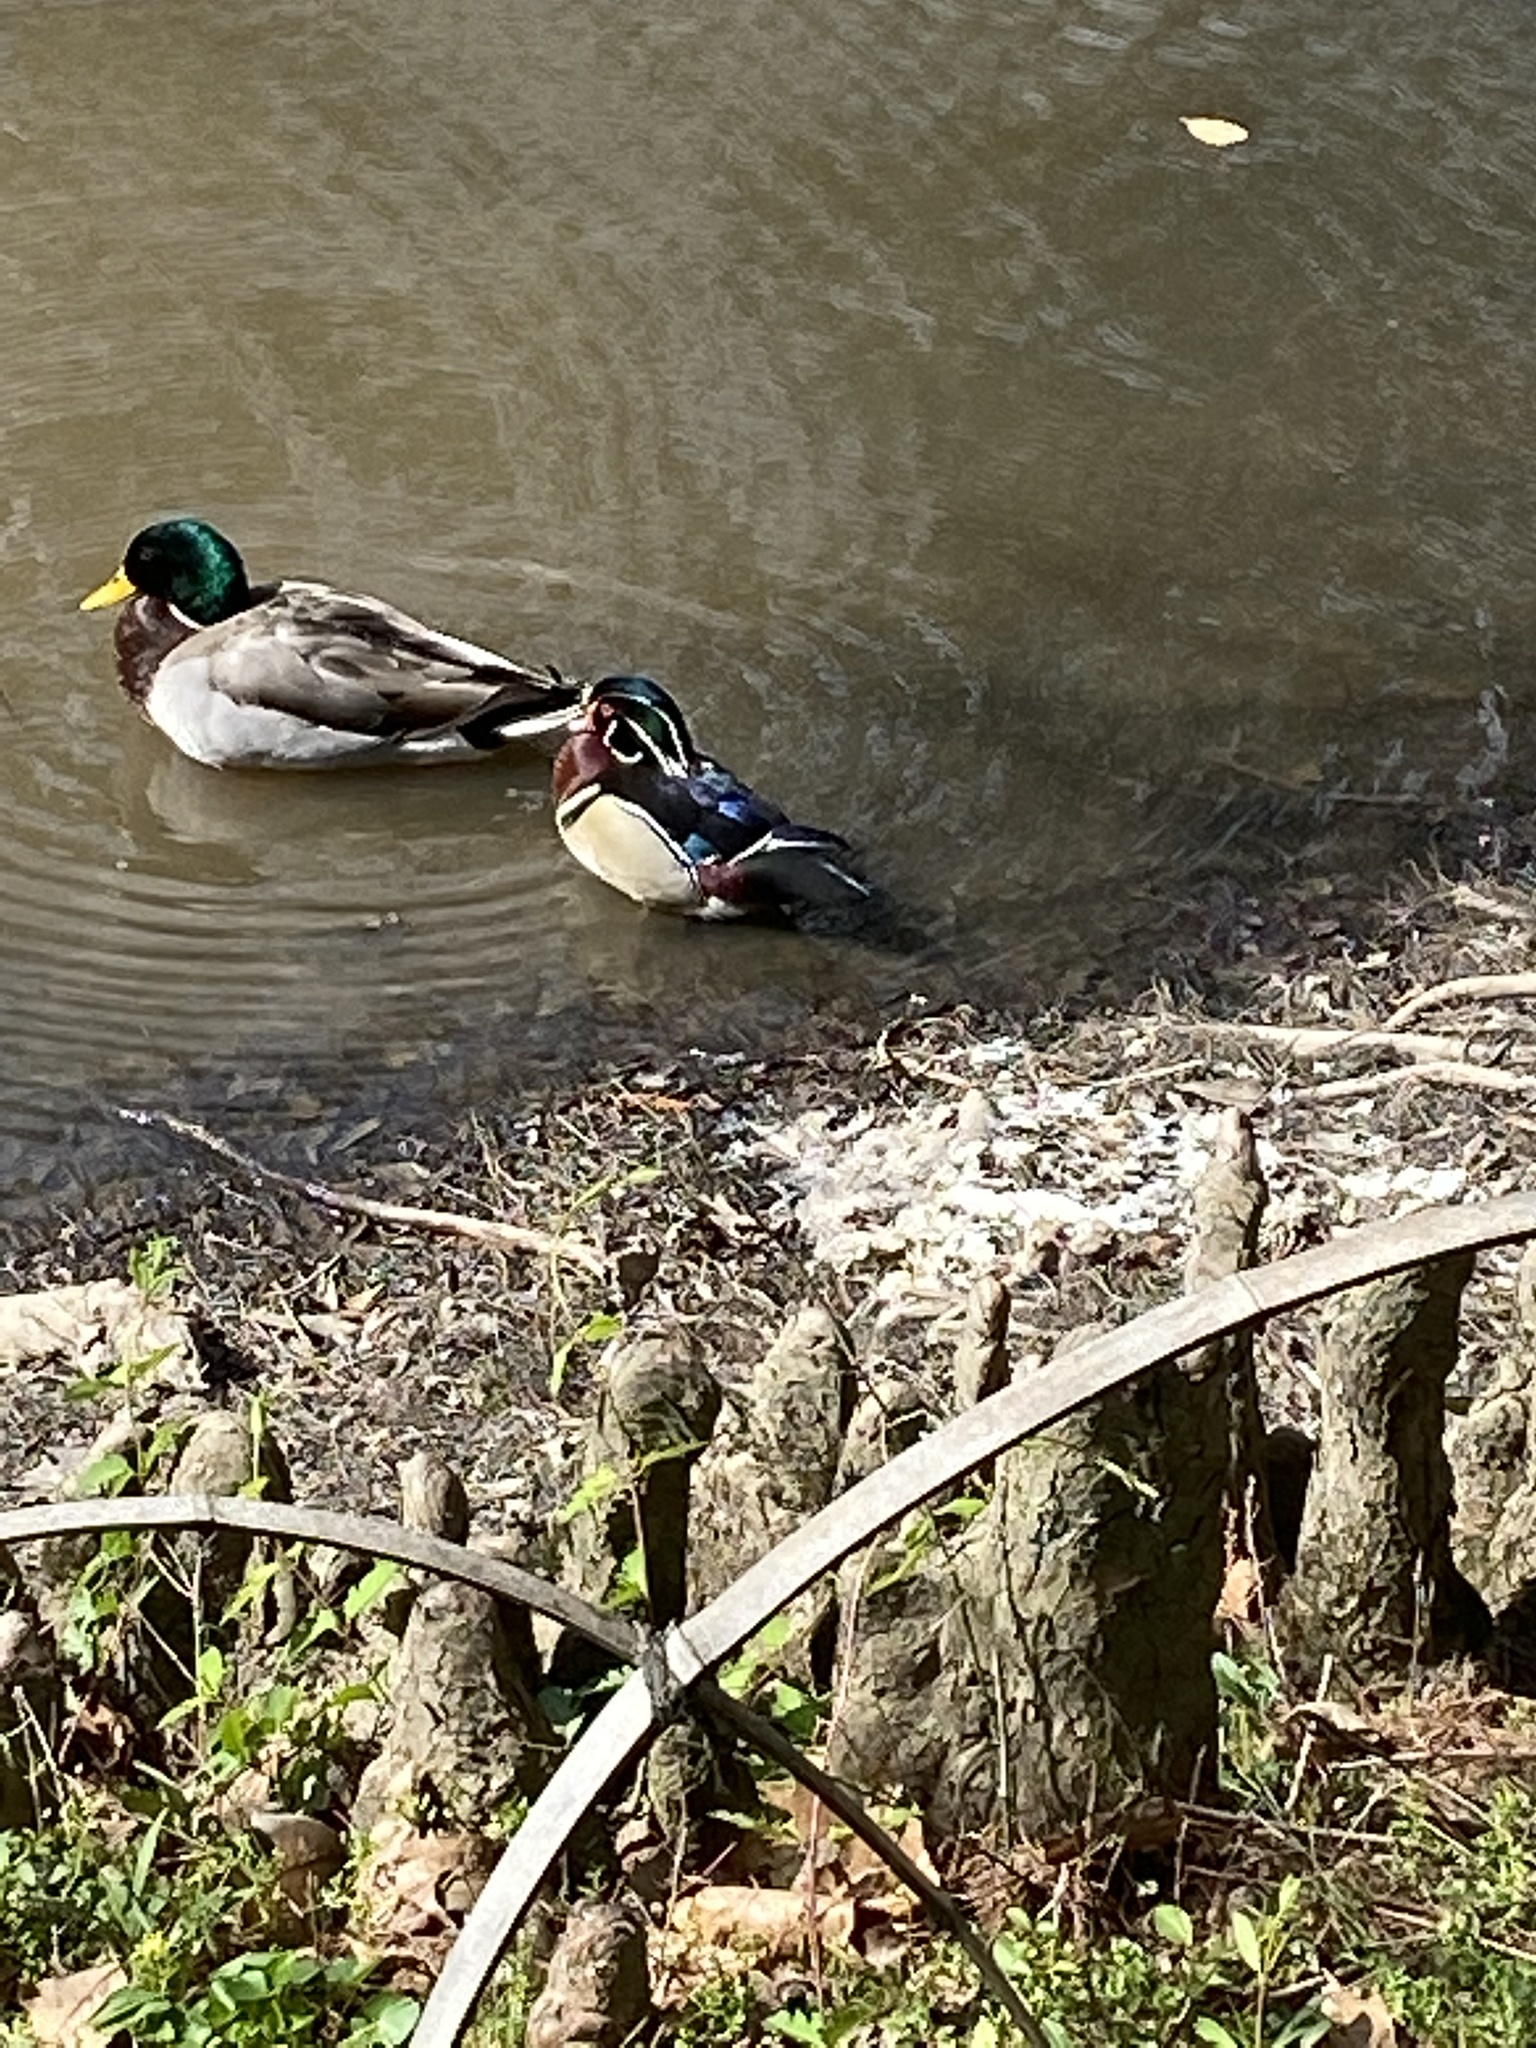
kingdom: Animalia
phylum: Chordata
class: Aves
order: Anseriformes
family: Anatidae
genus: Aix
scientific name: Aix sponsa
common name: Wood duck
